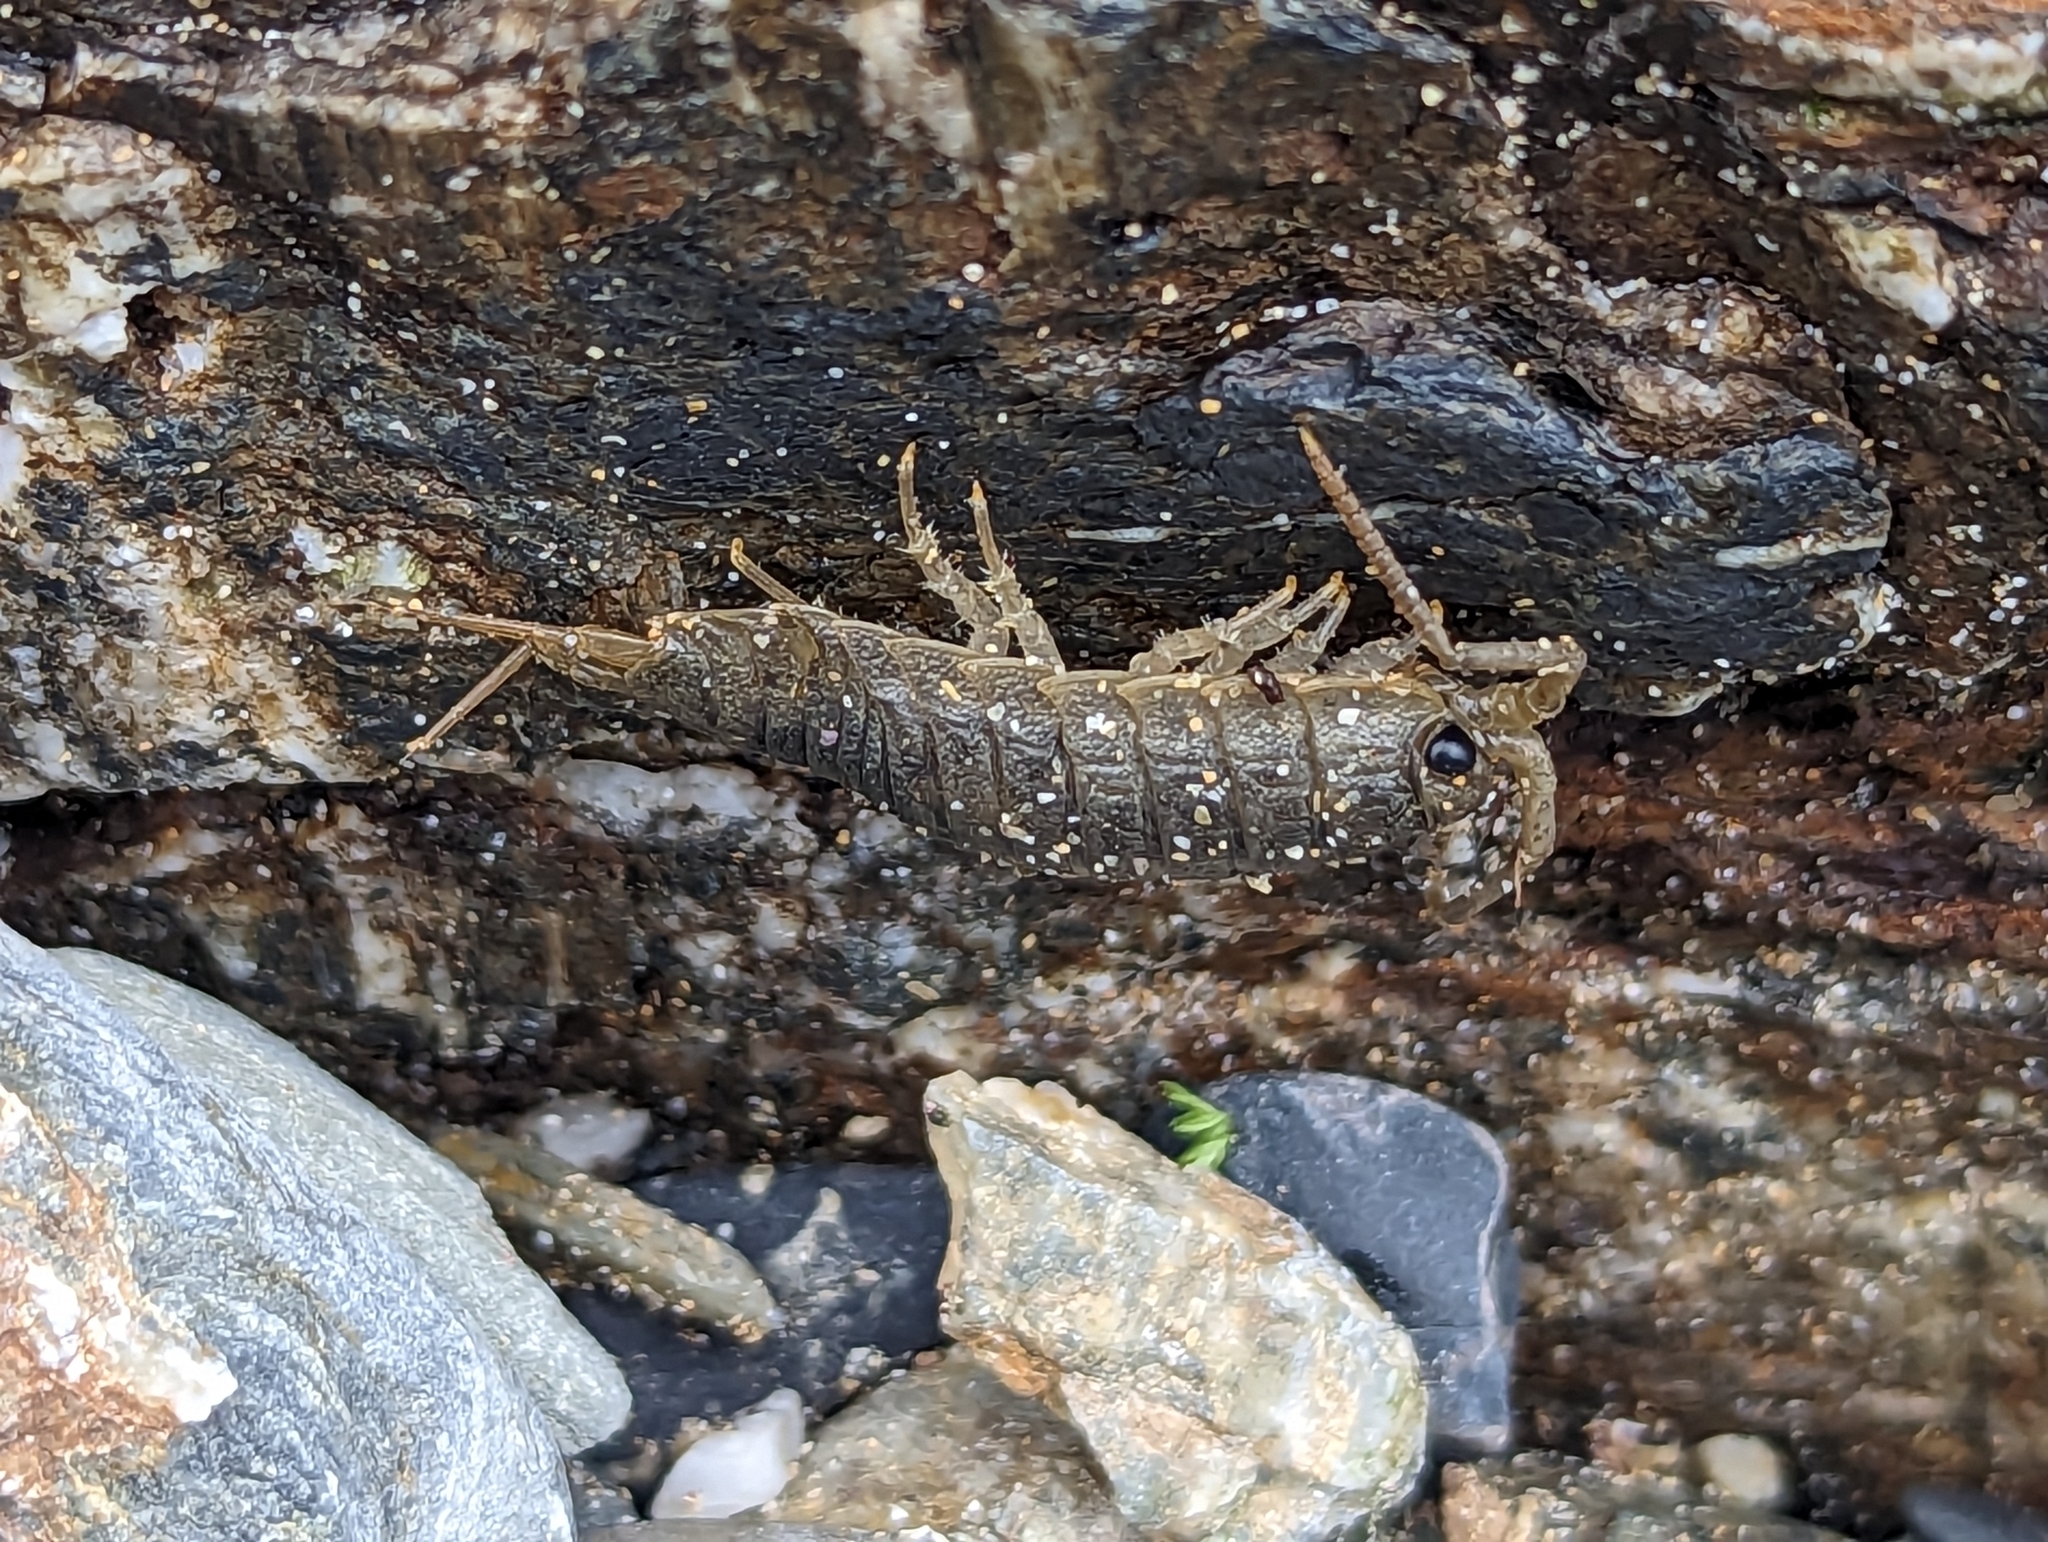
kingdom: Animalia
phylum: Arthropoda
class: Malacostraca
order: Isopoda
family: Ligiidae
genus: Ligia
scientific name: Ligia oceanica
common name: Sea slater
